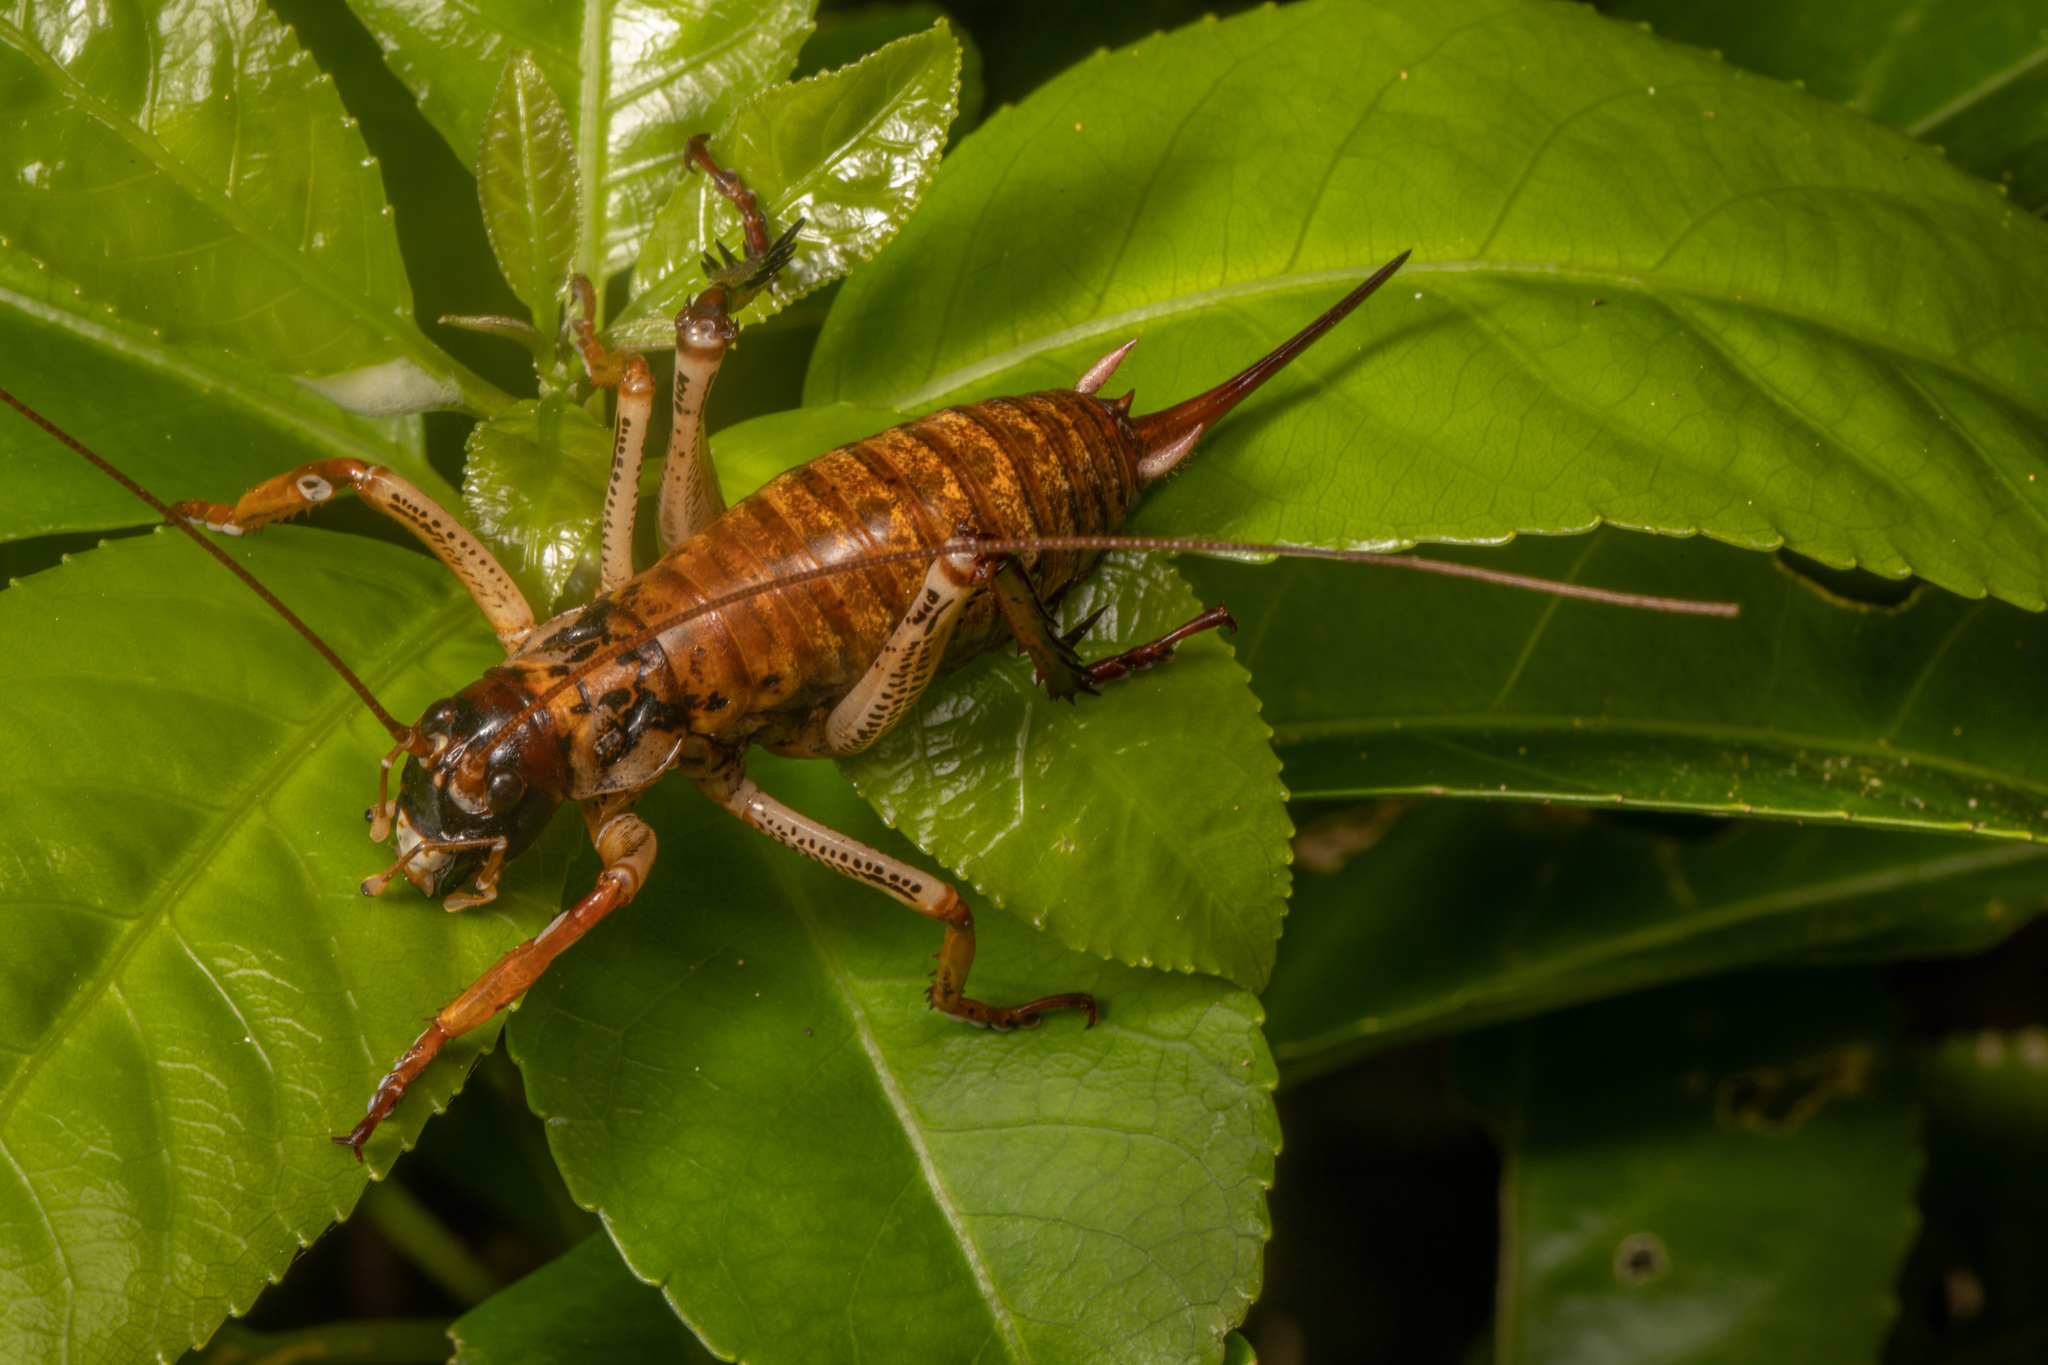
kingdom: Animalia
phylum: Arthropoda
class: Insecta
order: Orthoptera
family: Anostostomatidae
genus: Hemideina
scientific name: Hemideina thoracica
